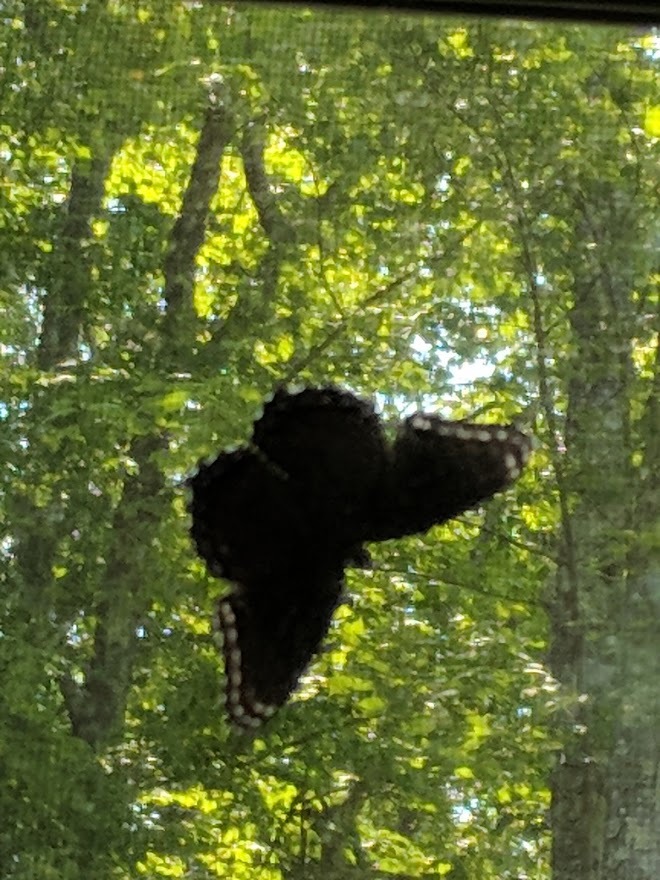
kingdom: Animalia
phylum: Arthropoda
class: Insecta
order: Lepidoptera
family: Nymphalidae
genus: Limenitis
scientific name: Limenitis astyanax
